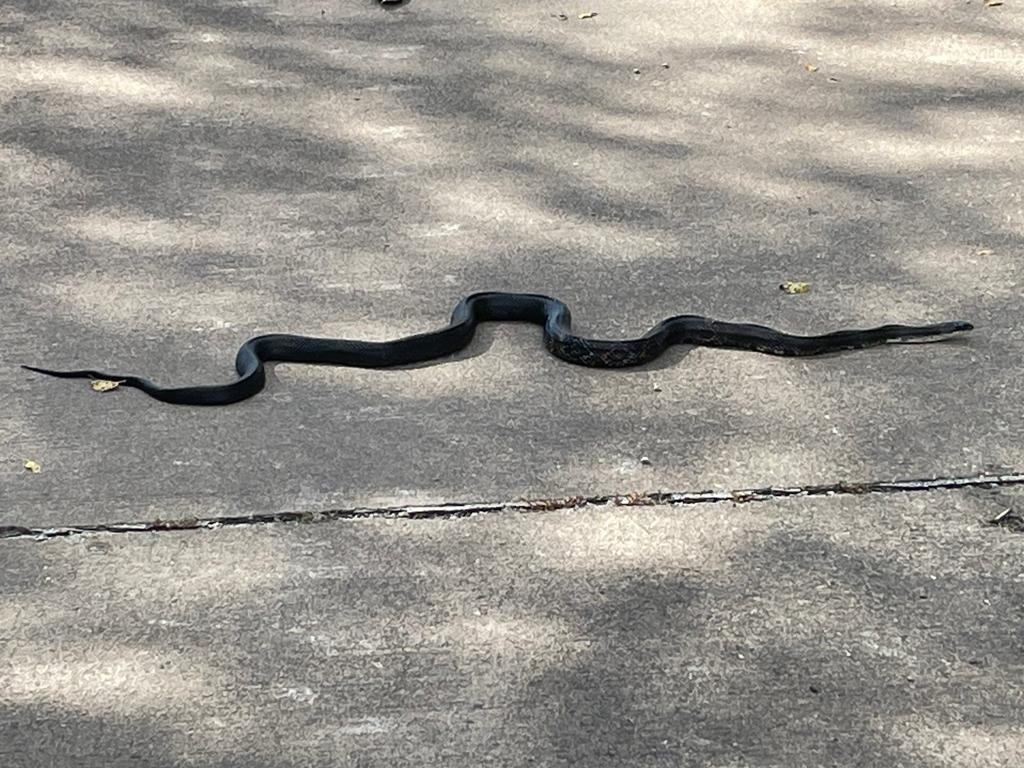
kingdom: Animalia
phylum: Chordata
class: Squamata
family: Colubridae
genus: Pantherophis
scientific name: Pantherophis spiloides
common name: Gray rat snake
